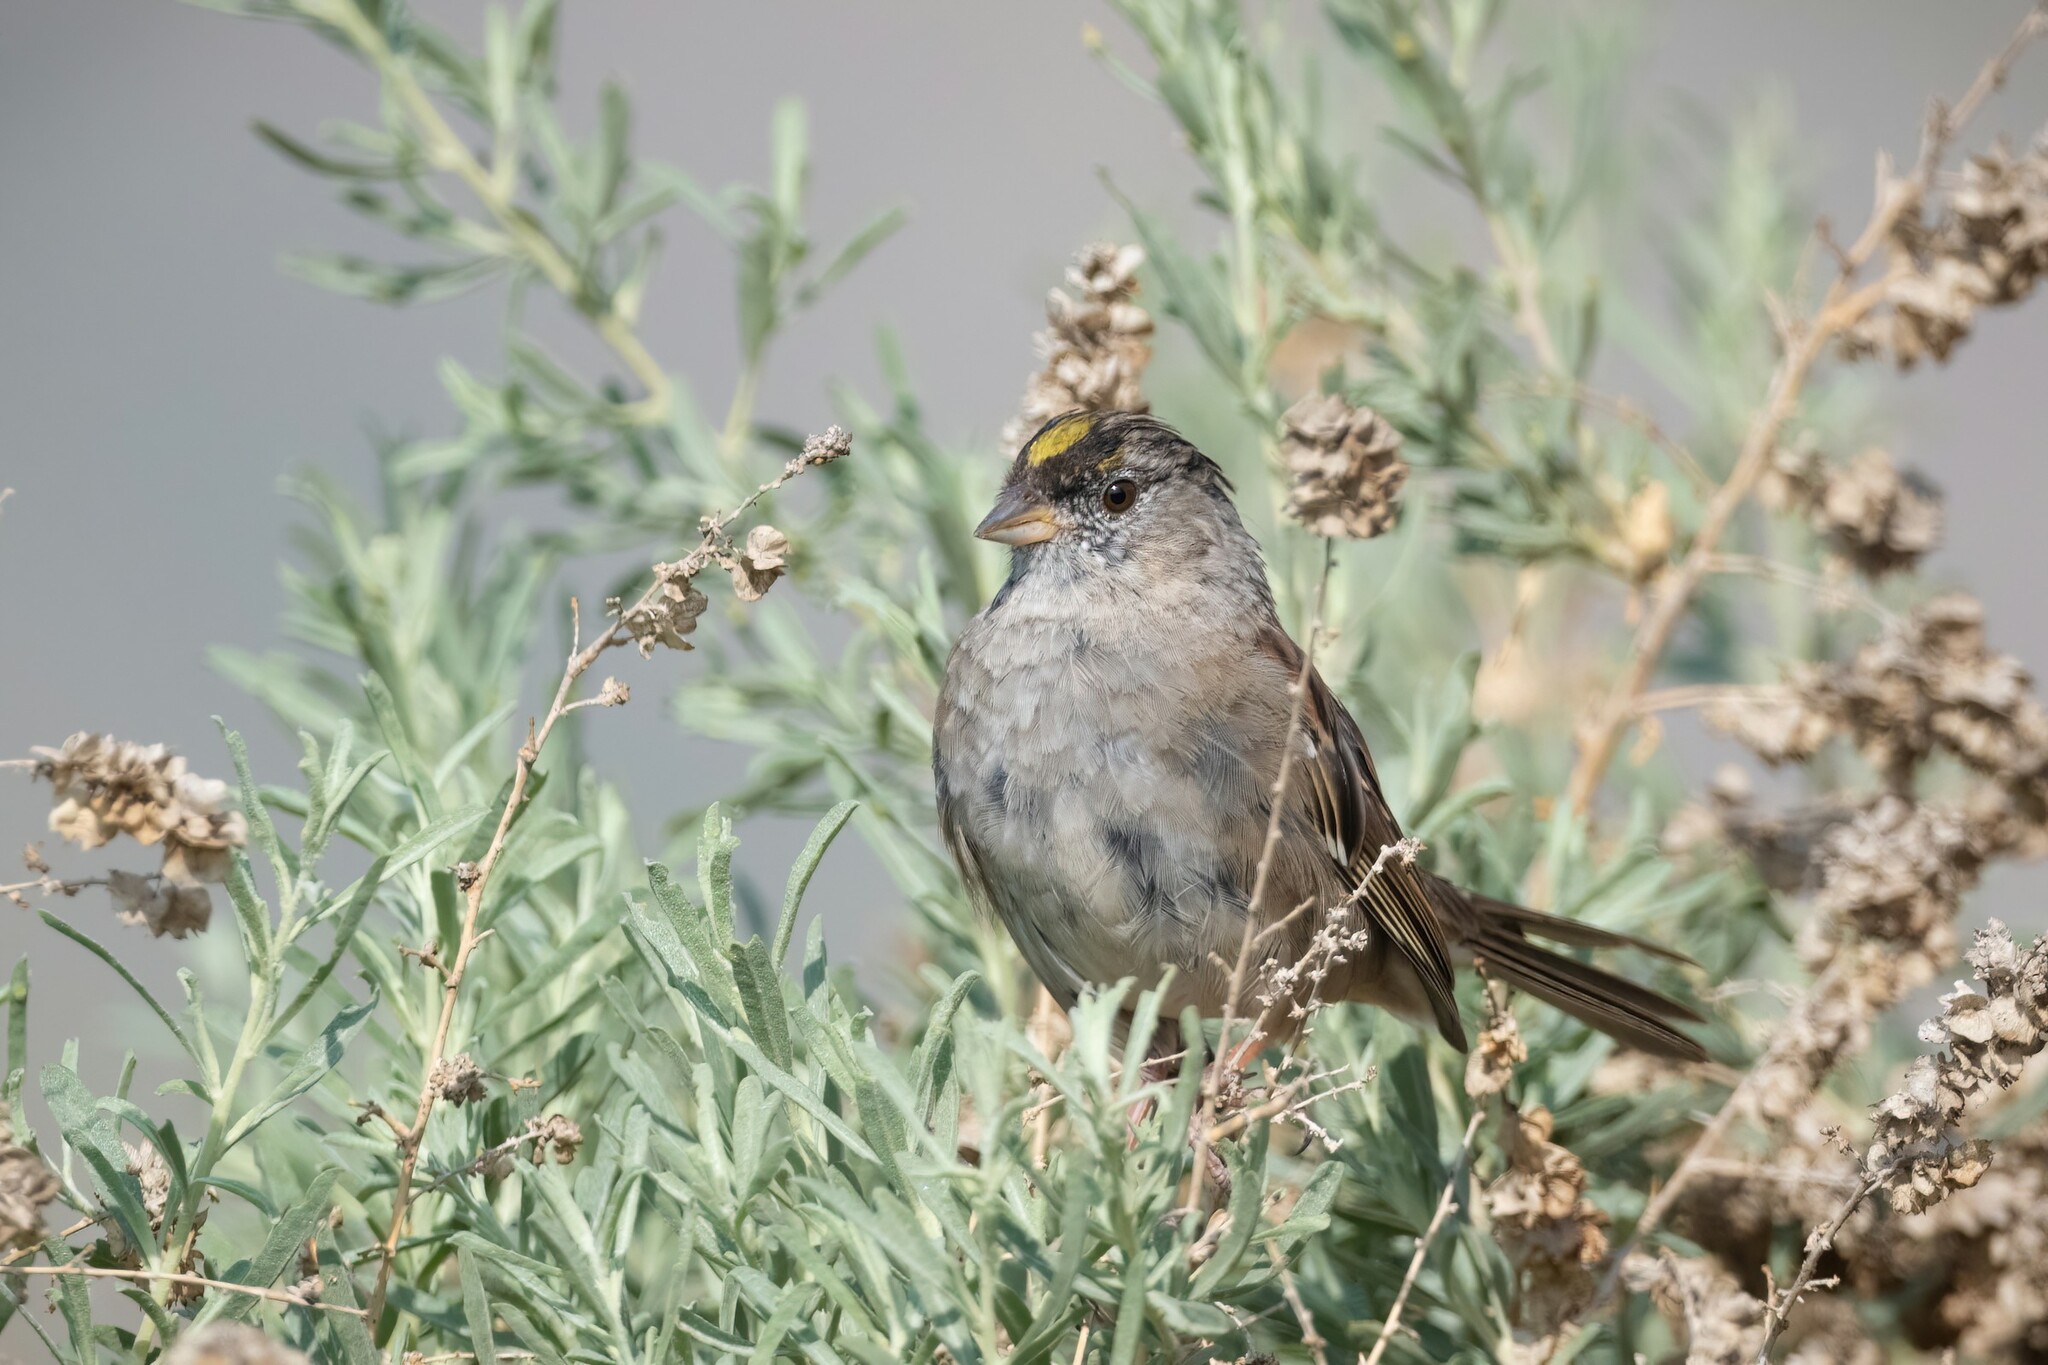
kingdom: Animalia
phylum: Chordata
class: Aves
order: Passeriformes
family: Passerellidae
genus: Zonotrichia
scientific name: Zonotrichia atricapilla
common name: Golden-crowned sparrow
